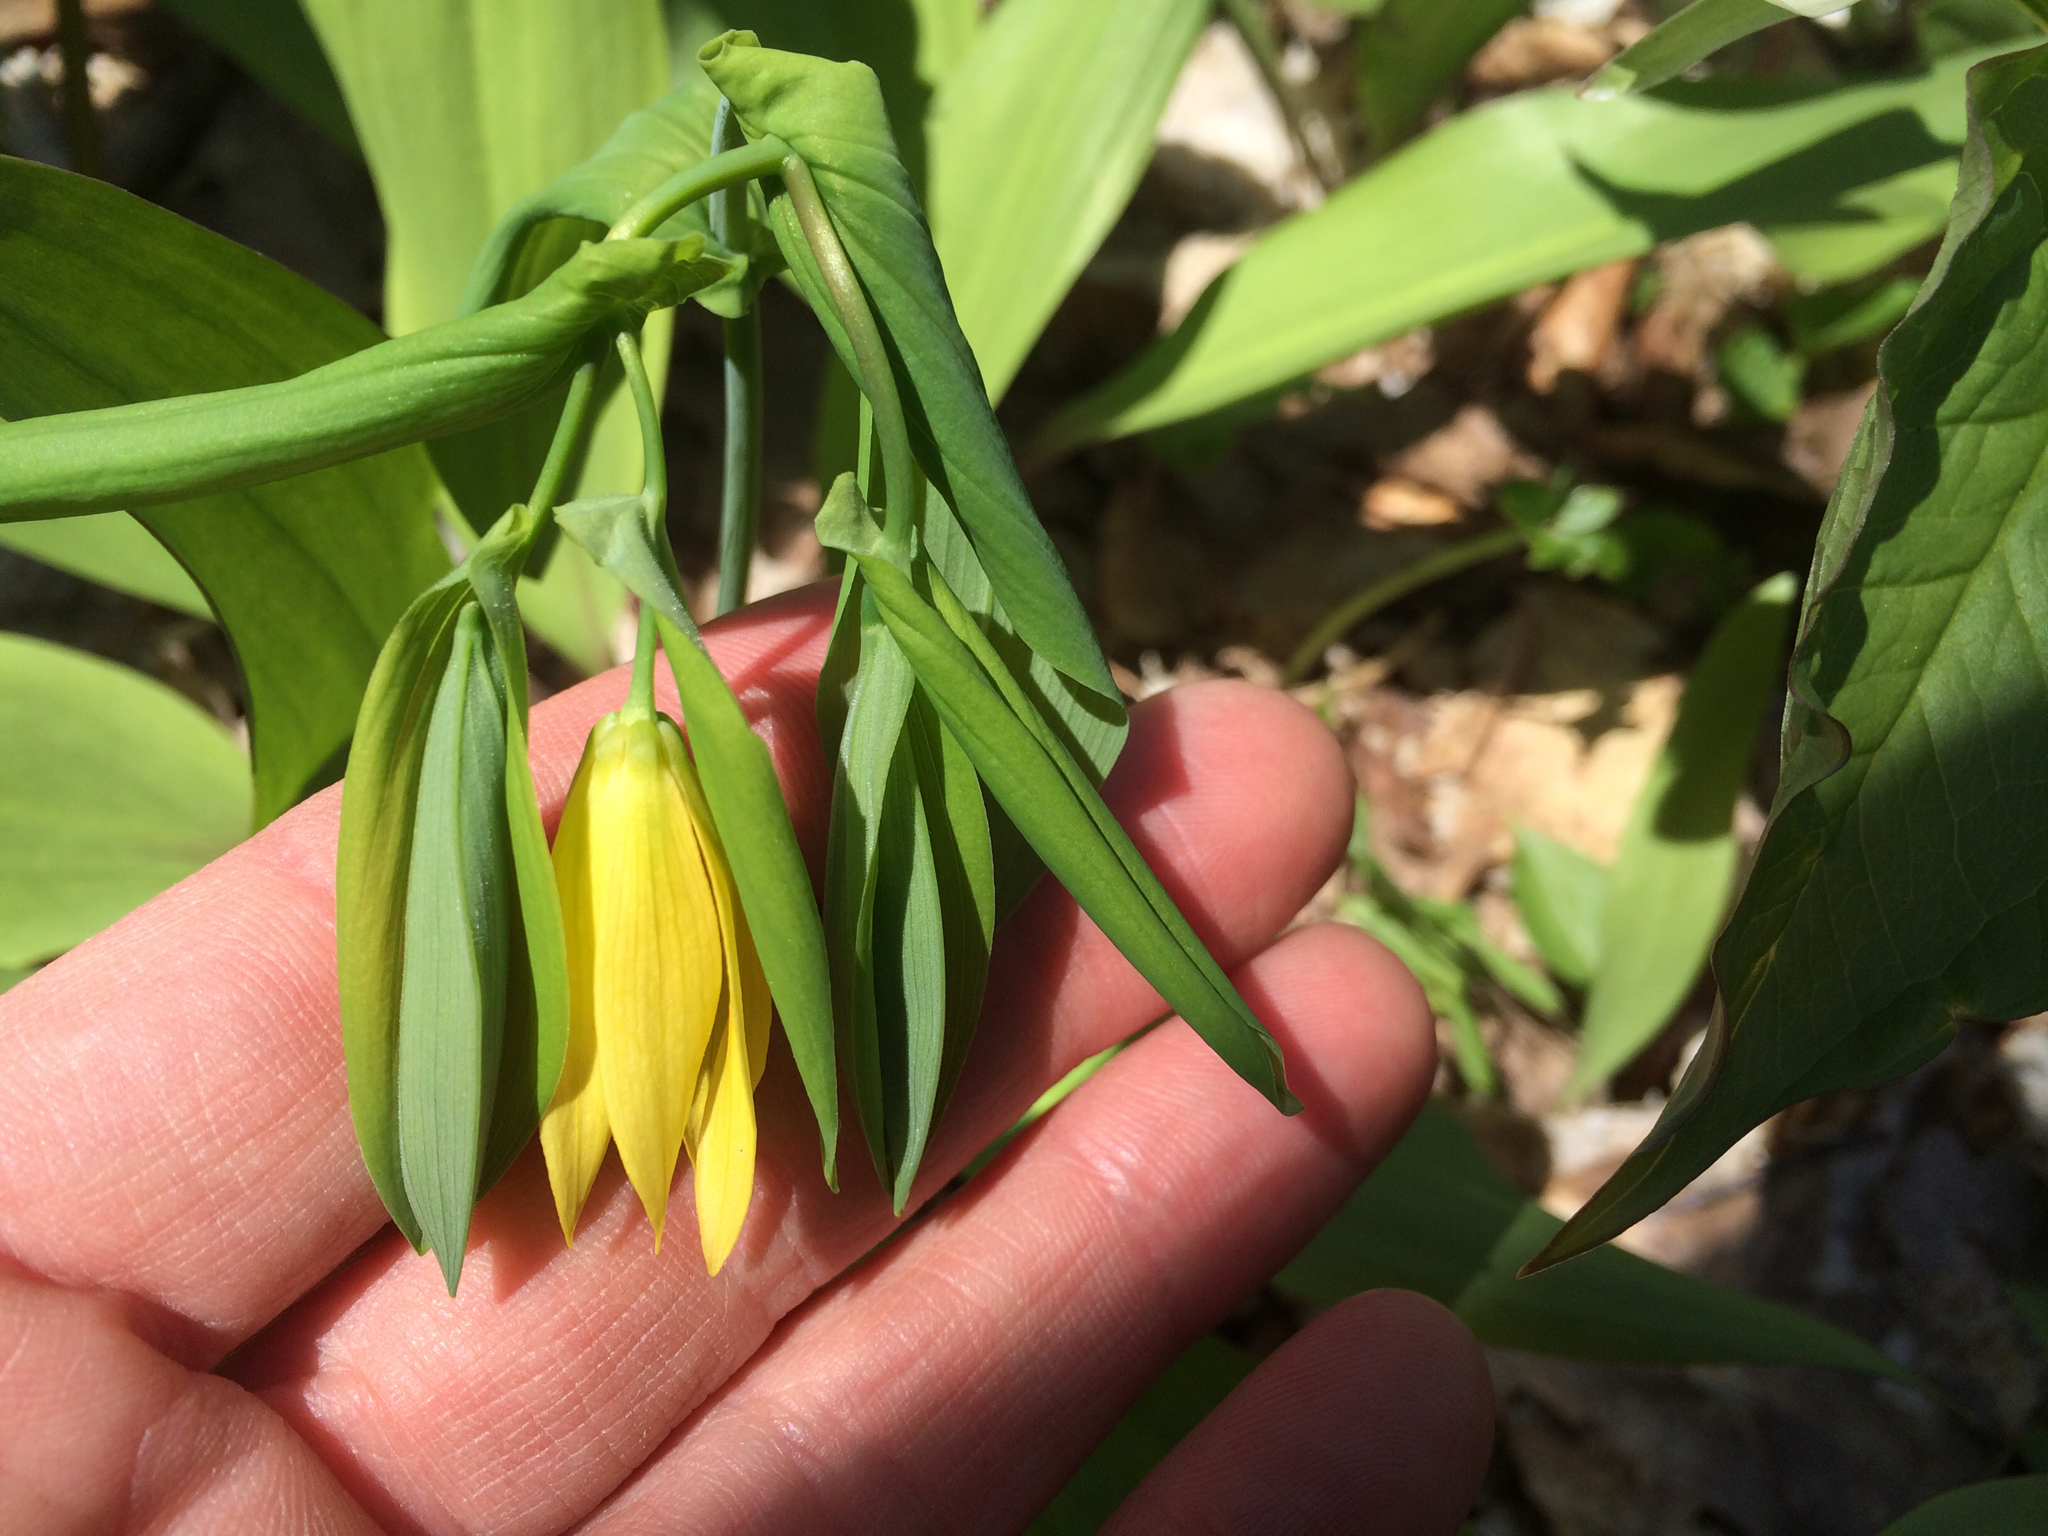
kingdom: Plantae
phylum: Tracheophyta
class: Liliopsida
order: Liliales
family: Colchicaceae
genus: Uvularia
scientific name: Uvularia grandiflora
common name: Bellwort
